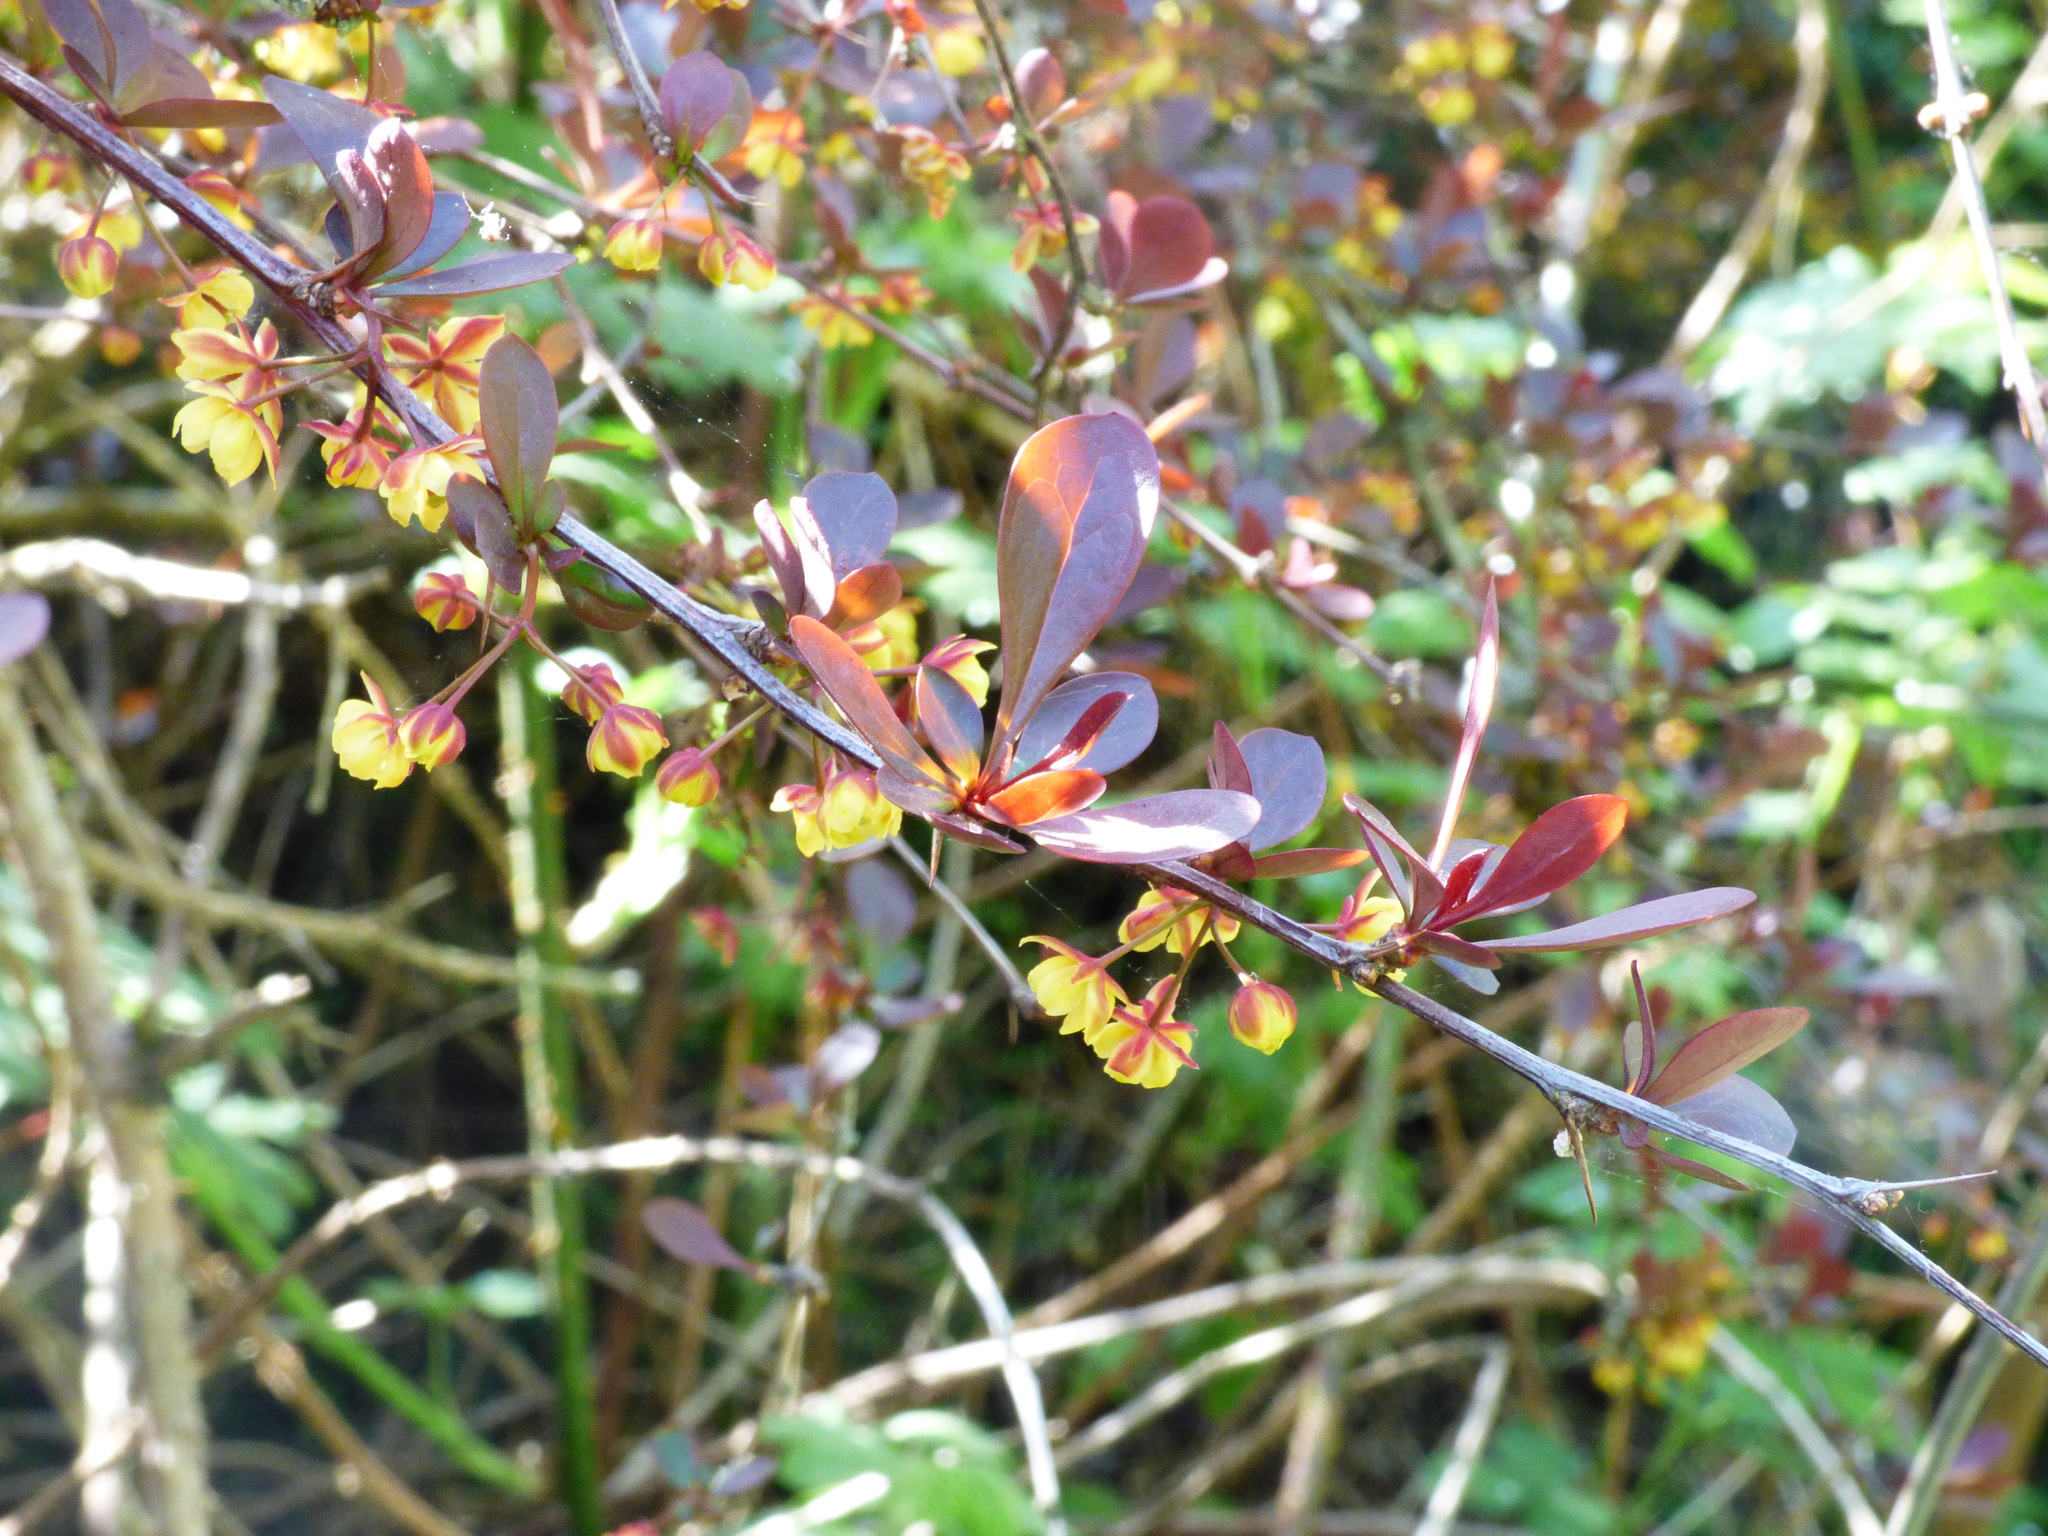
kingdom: Plantae
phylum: Tracheophyta
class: Magnoliopsida
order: Ranunculales
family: Berberidaceae
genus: Berberis
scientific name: Berberis thunbergii
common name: Japanese barberry
